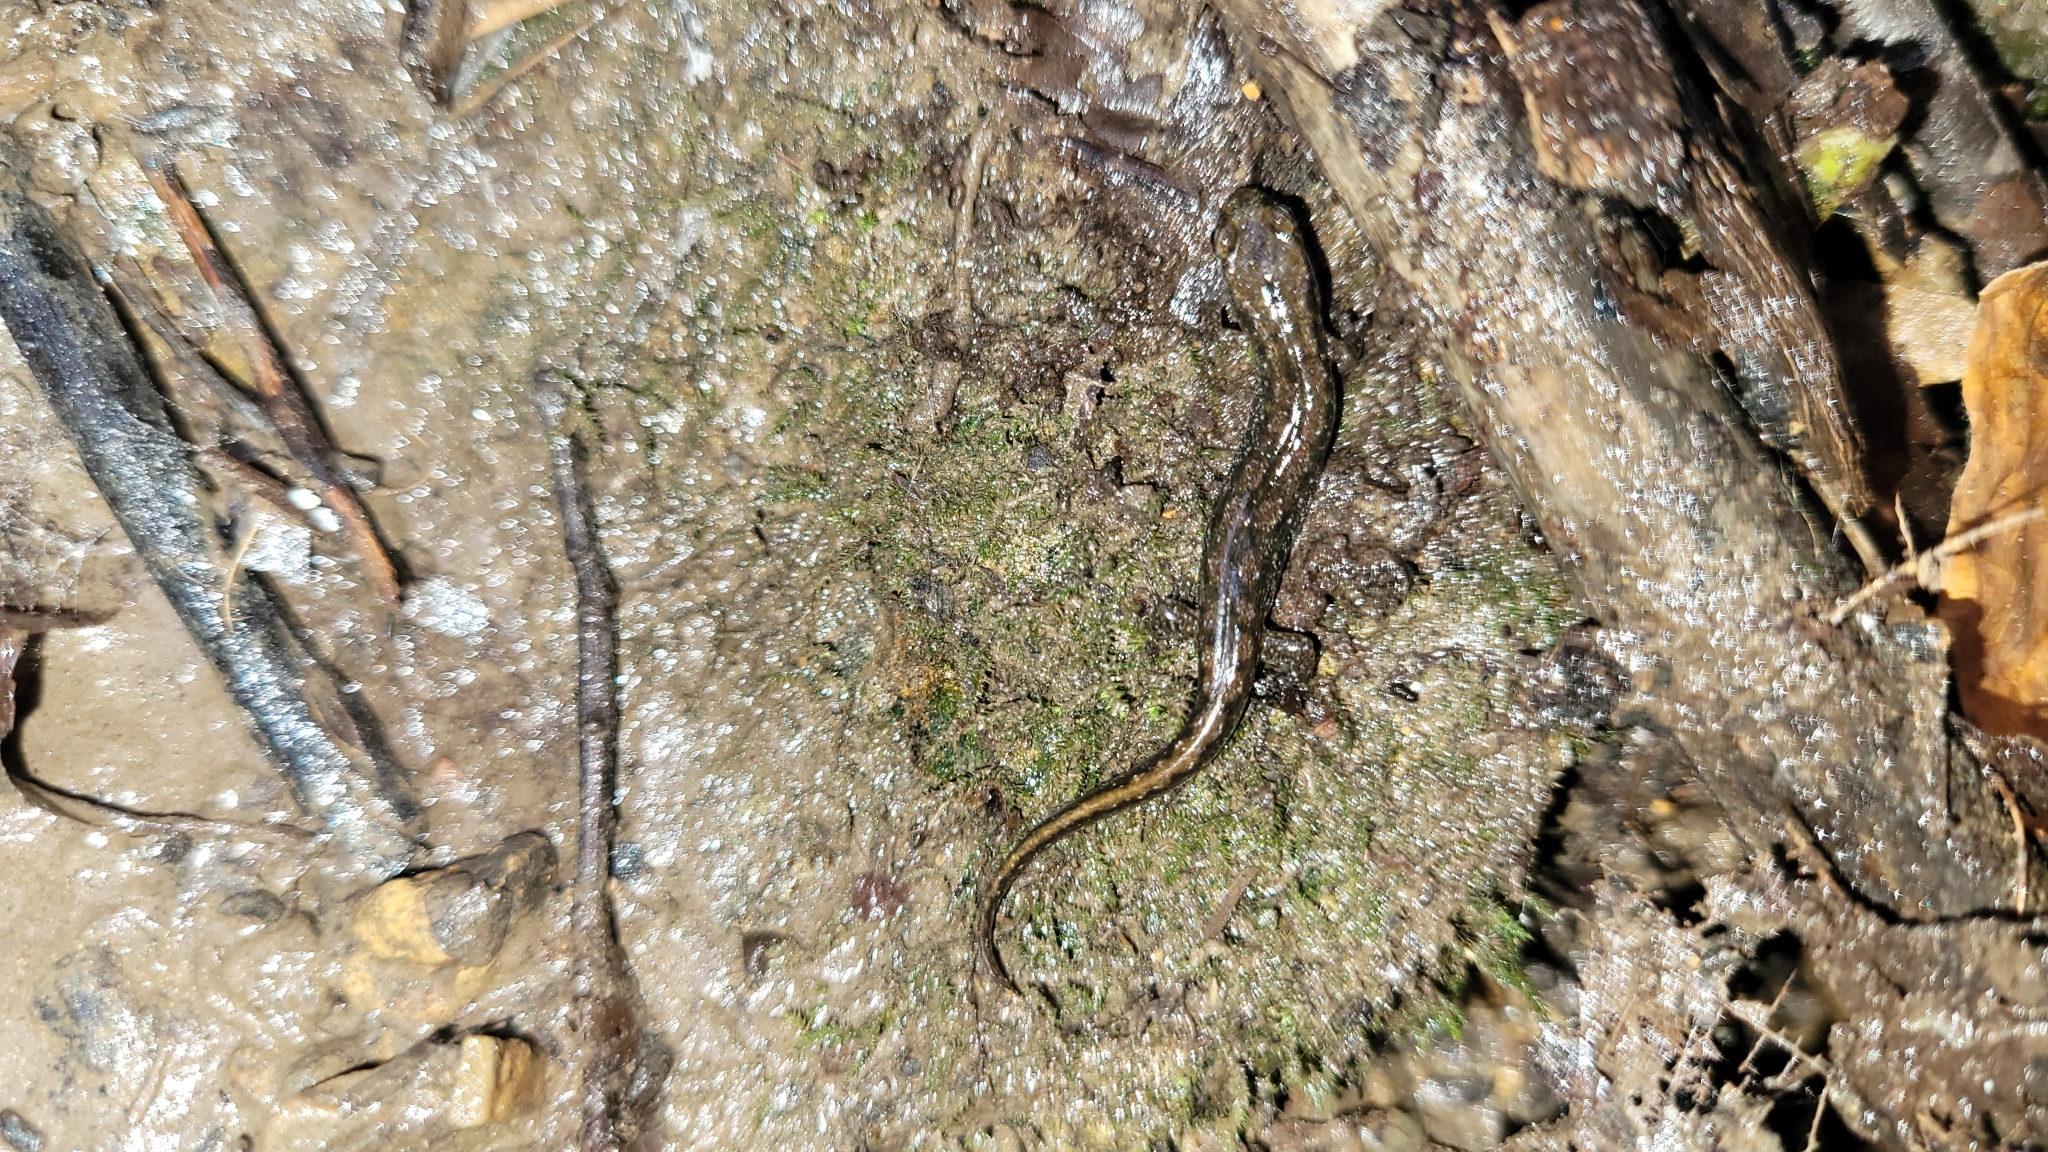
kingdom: Animalia
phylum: Chordata
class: Amphibia
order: Caudata
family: Plethodontidae
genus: Desmognathus
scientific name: Desmognathus fuscus
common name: Northern dusky salamander
